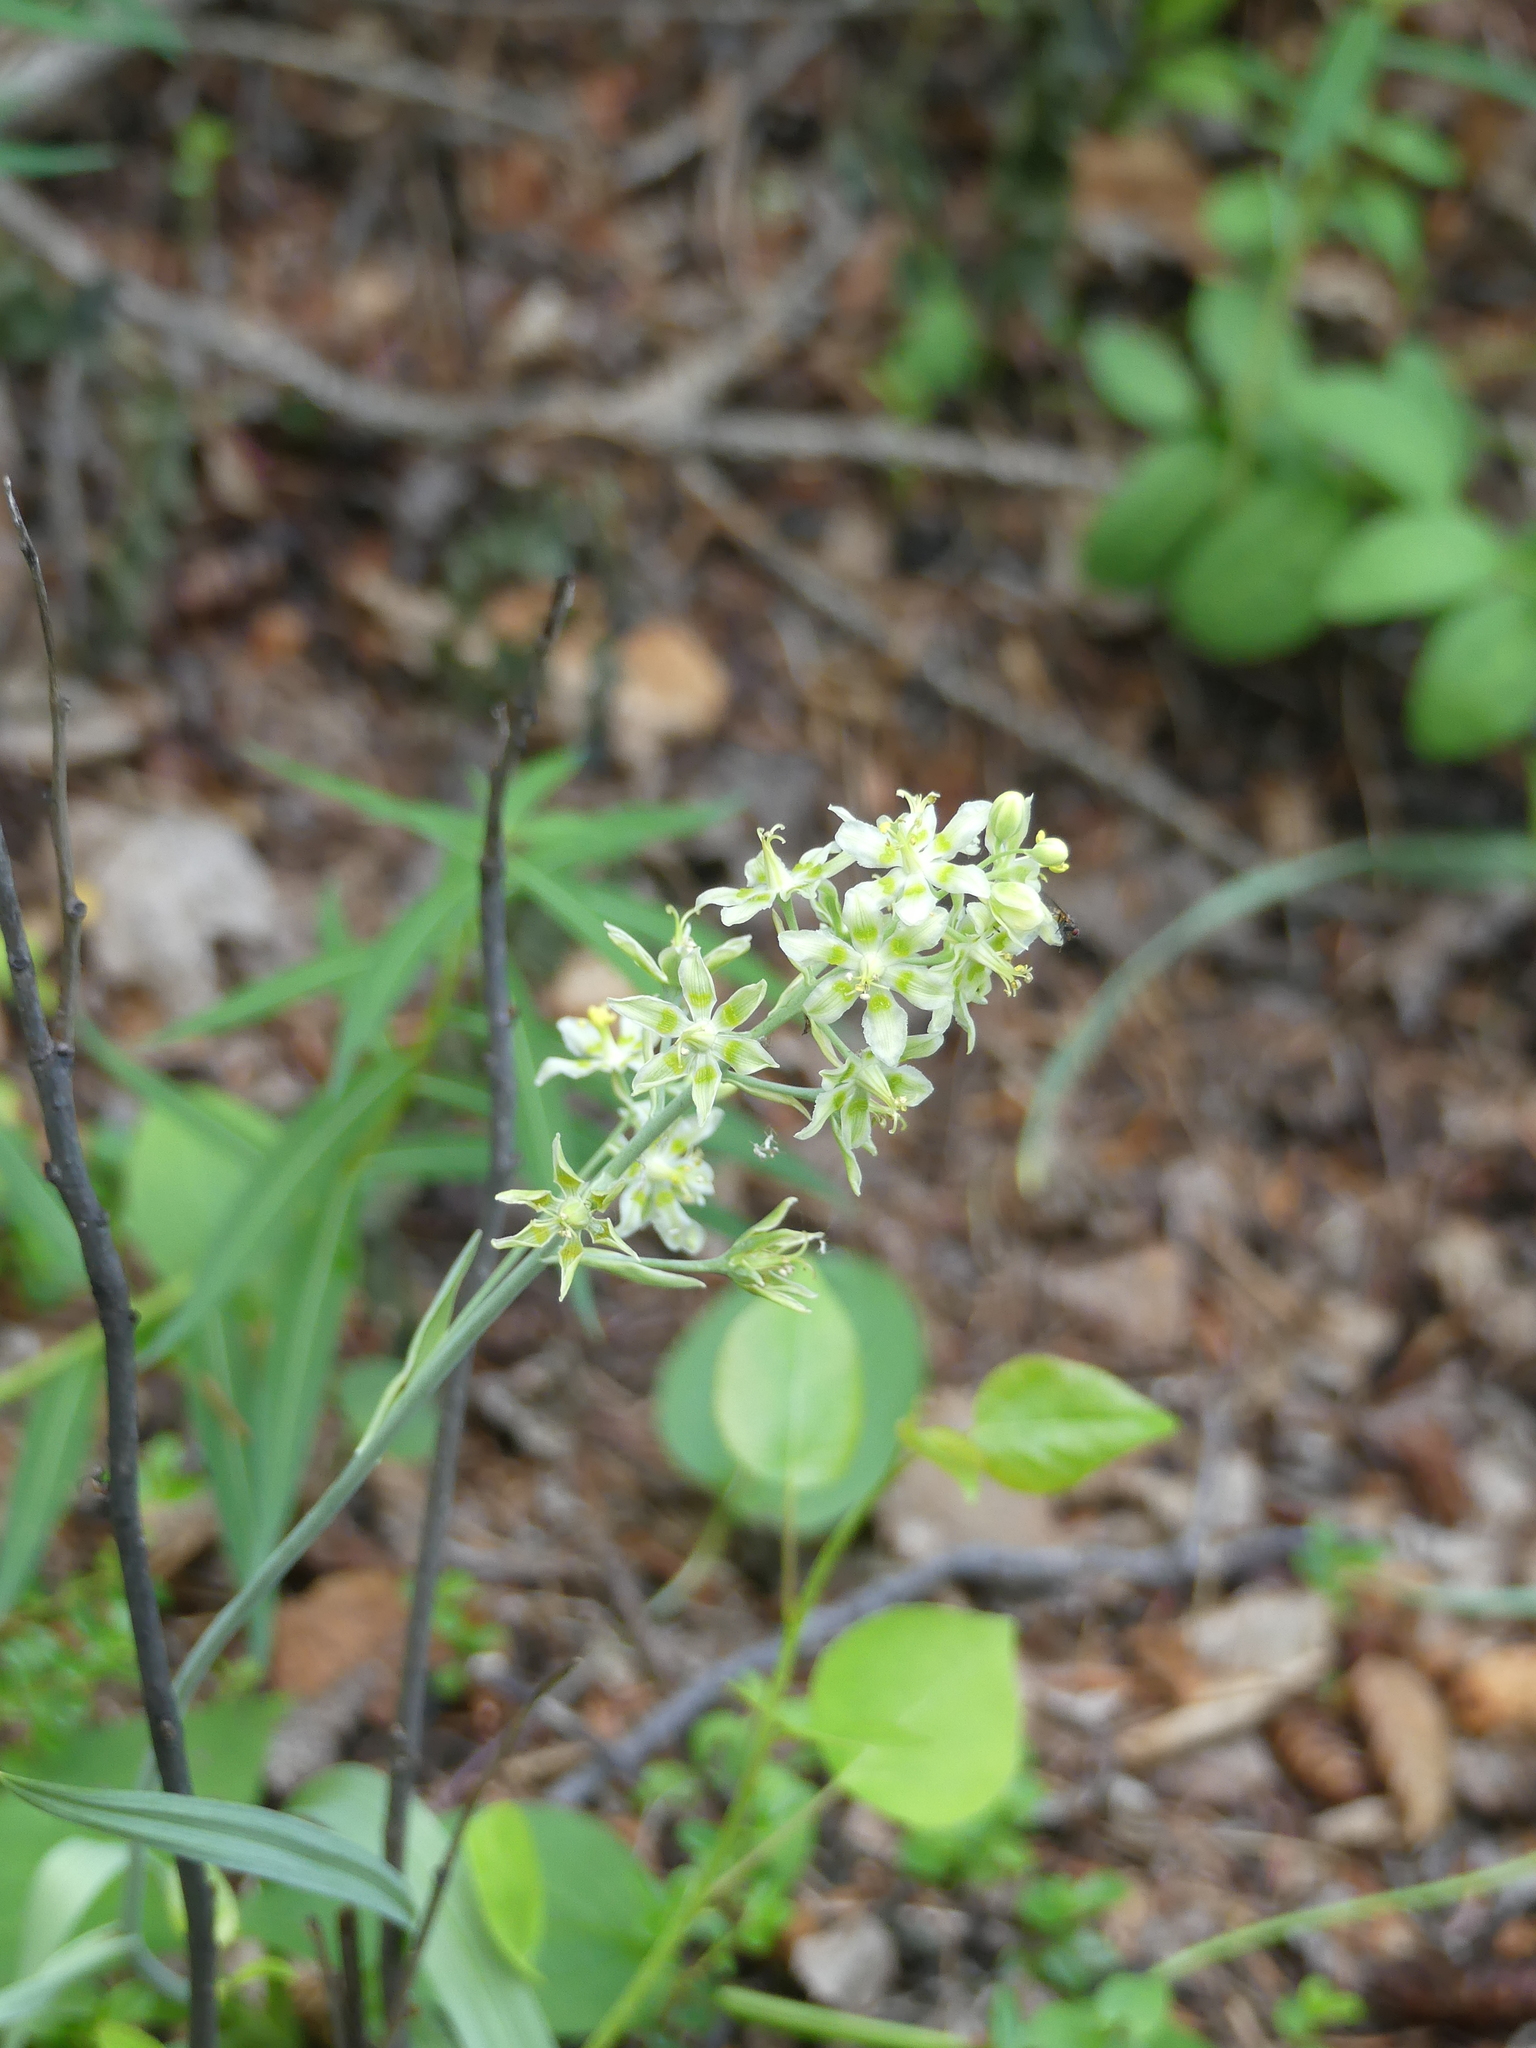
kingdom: Plantae
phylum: Tracheophyta
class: Liliopsida
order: Liliales
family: Melanthiaceae
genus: Anticlea
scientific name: Anticlea elegans
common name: Mountain death camas
